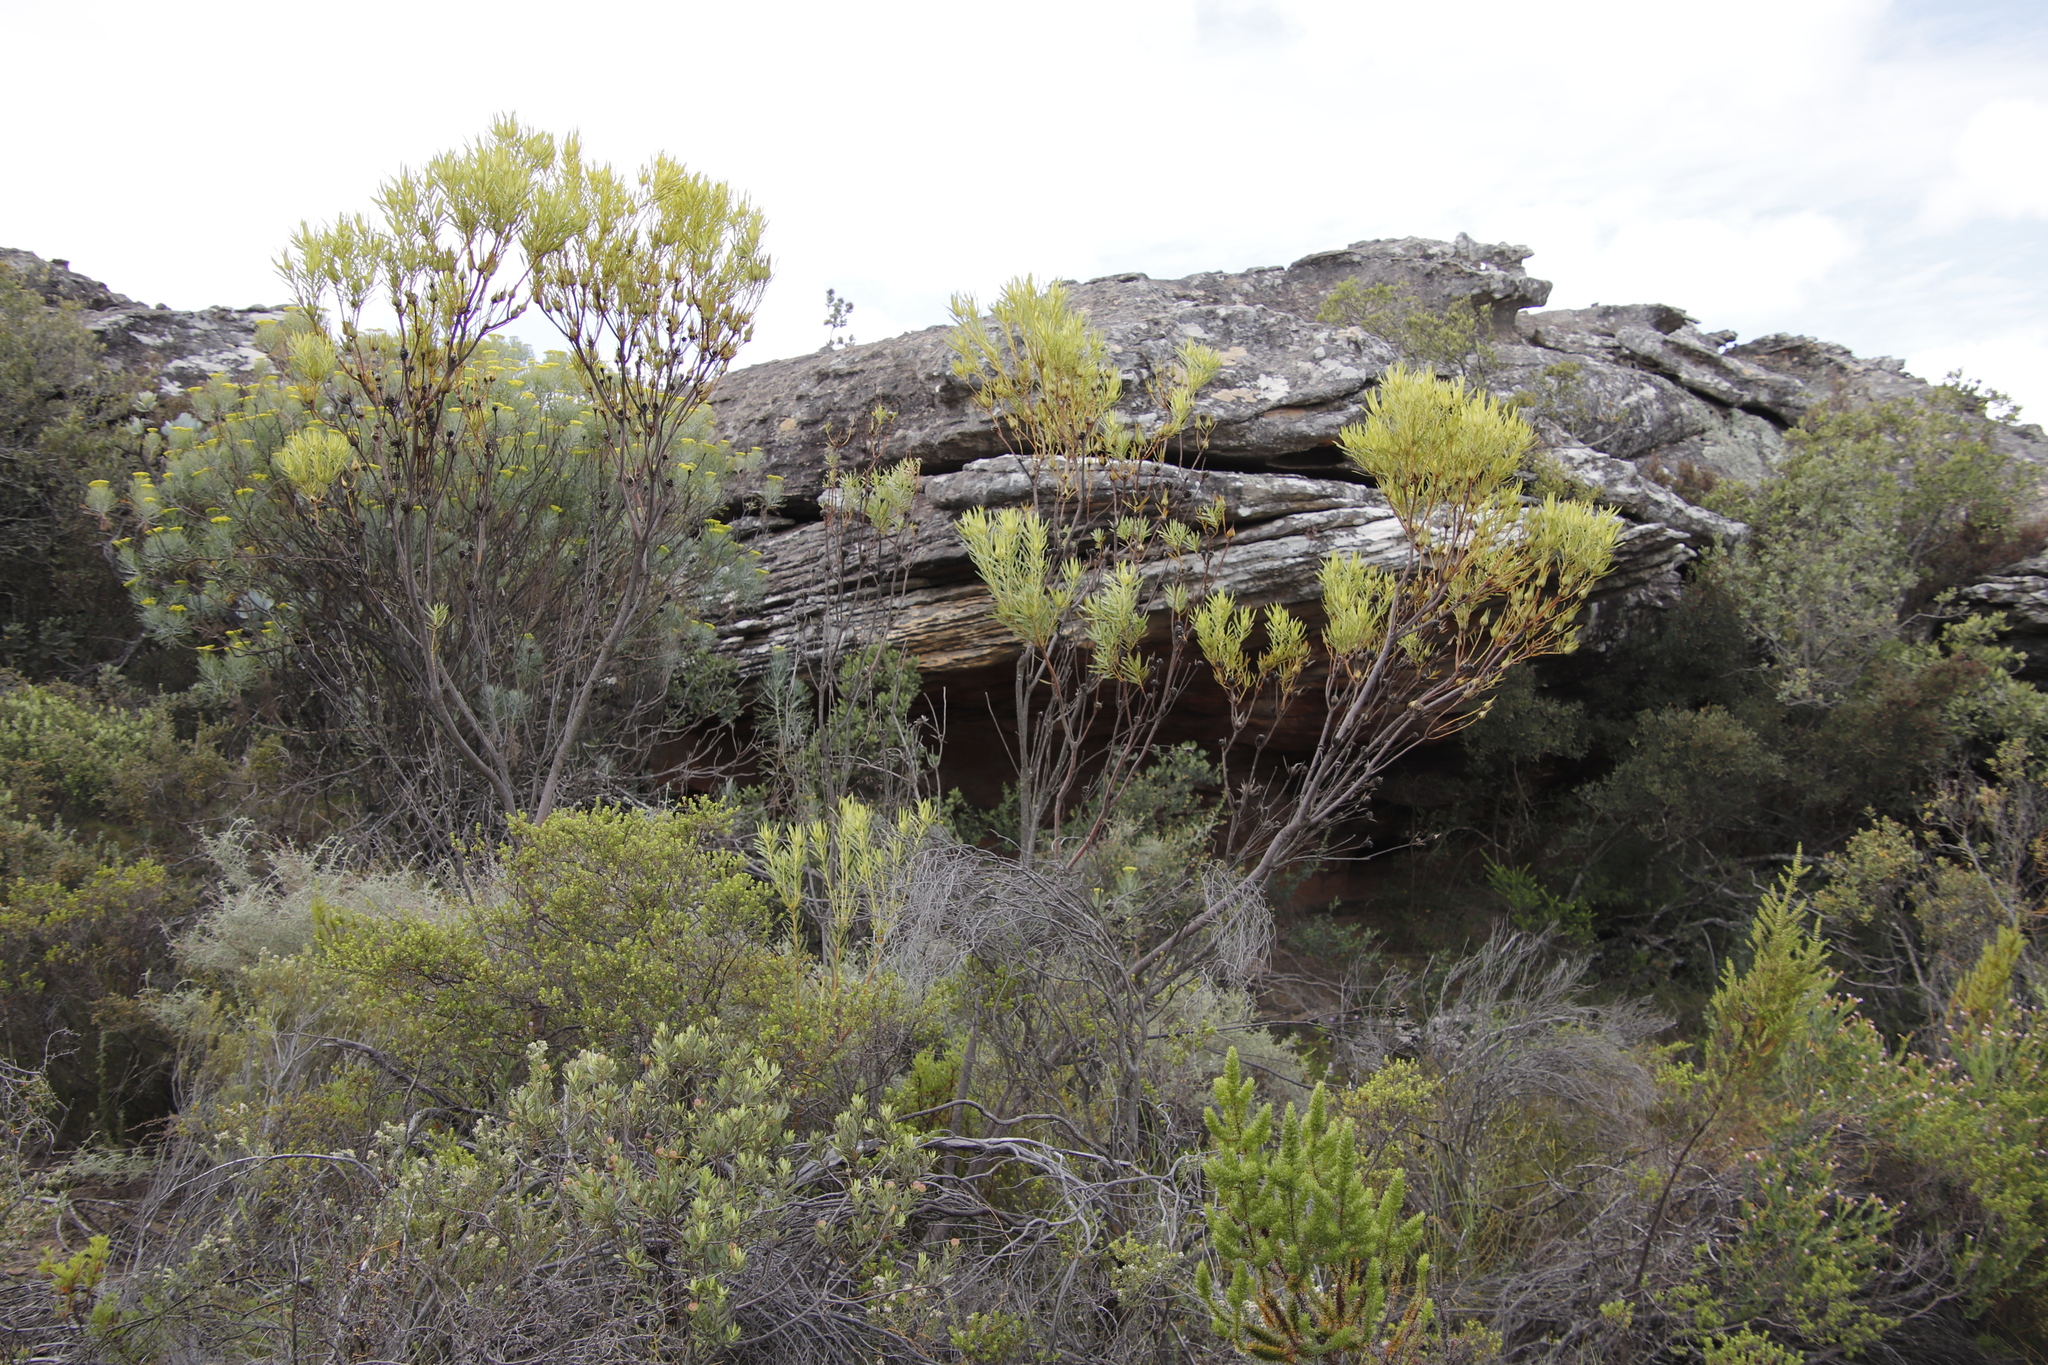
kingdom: Plantae
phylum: Tracheophyta
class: Magnoliopsida
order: Proteales
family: Proteaceae
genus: Leucadendron
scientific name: Leucadendron salignum
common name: Common sunshine conebush
